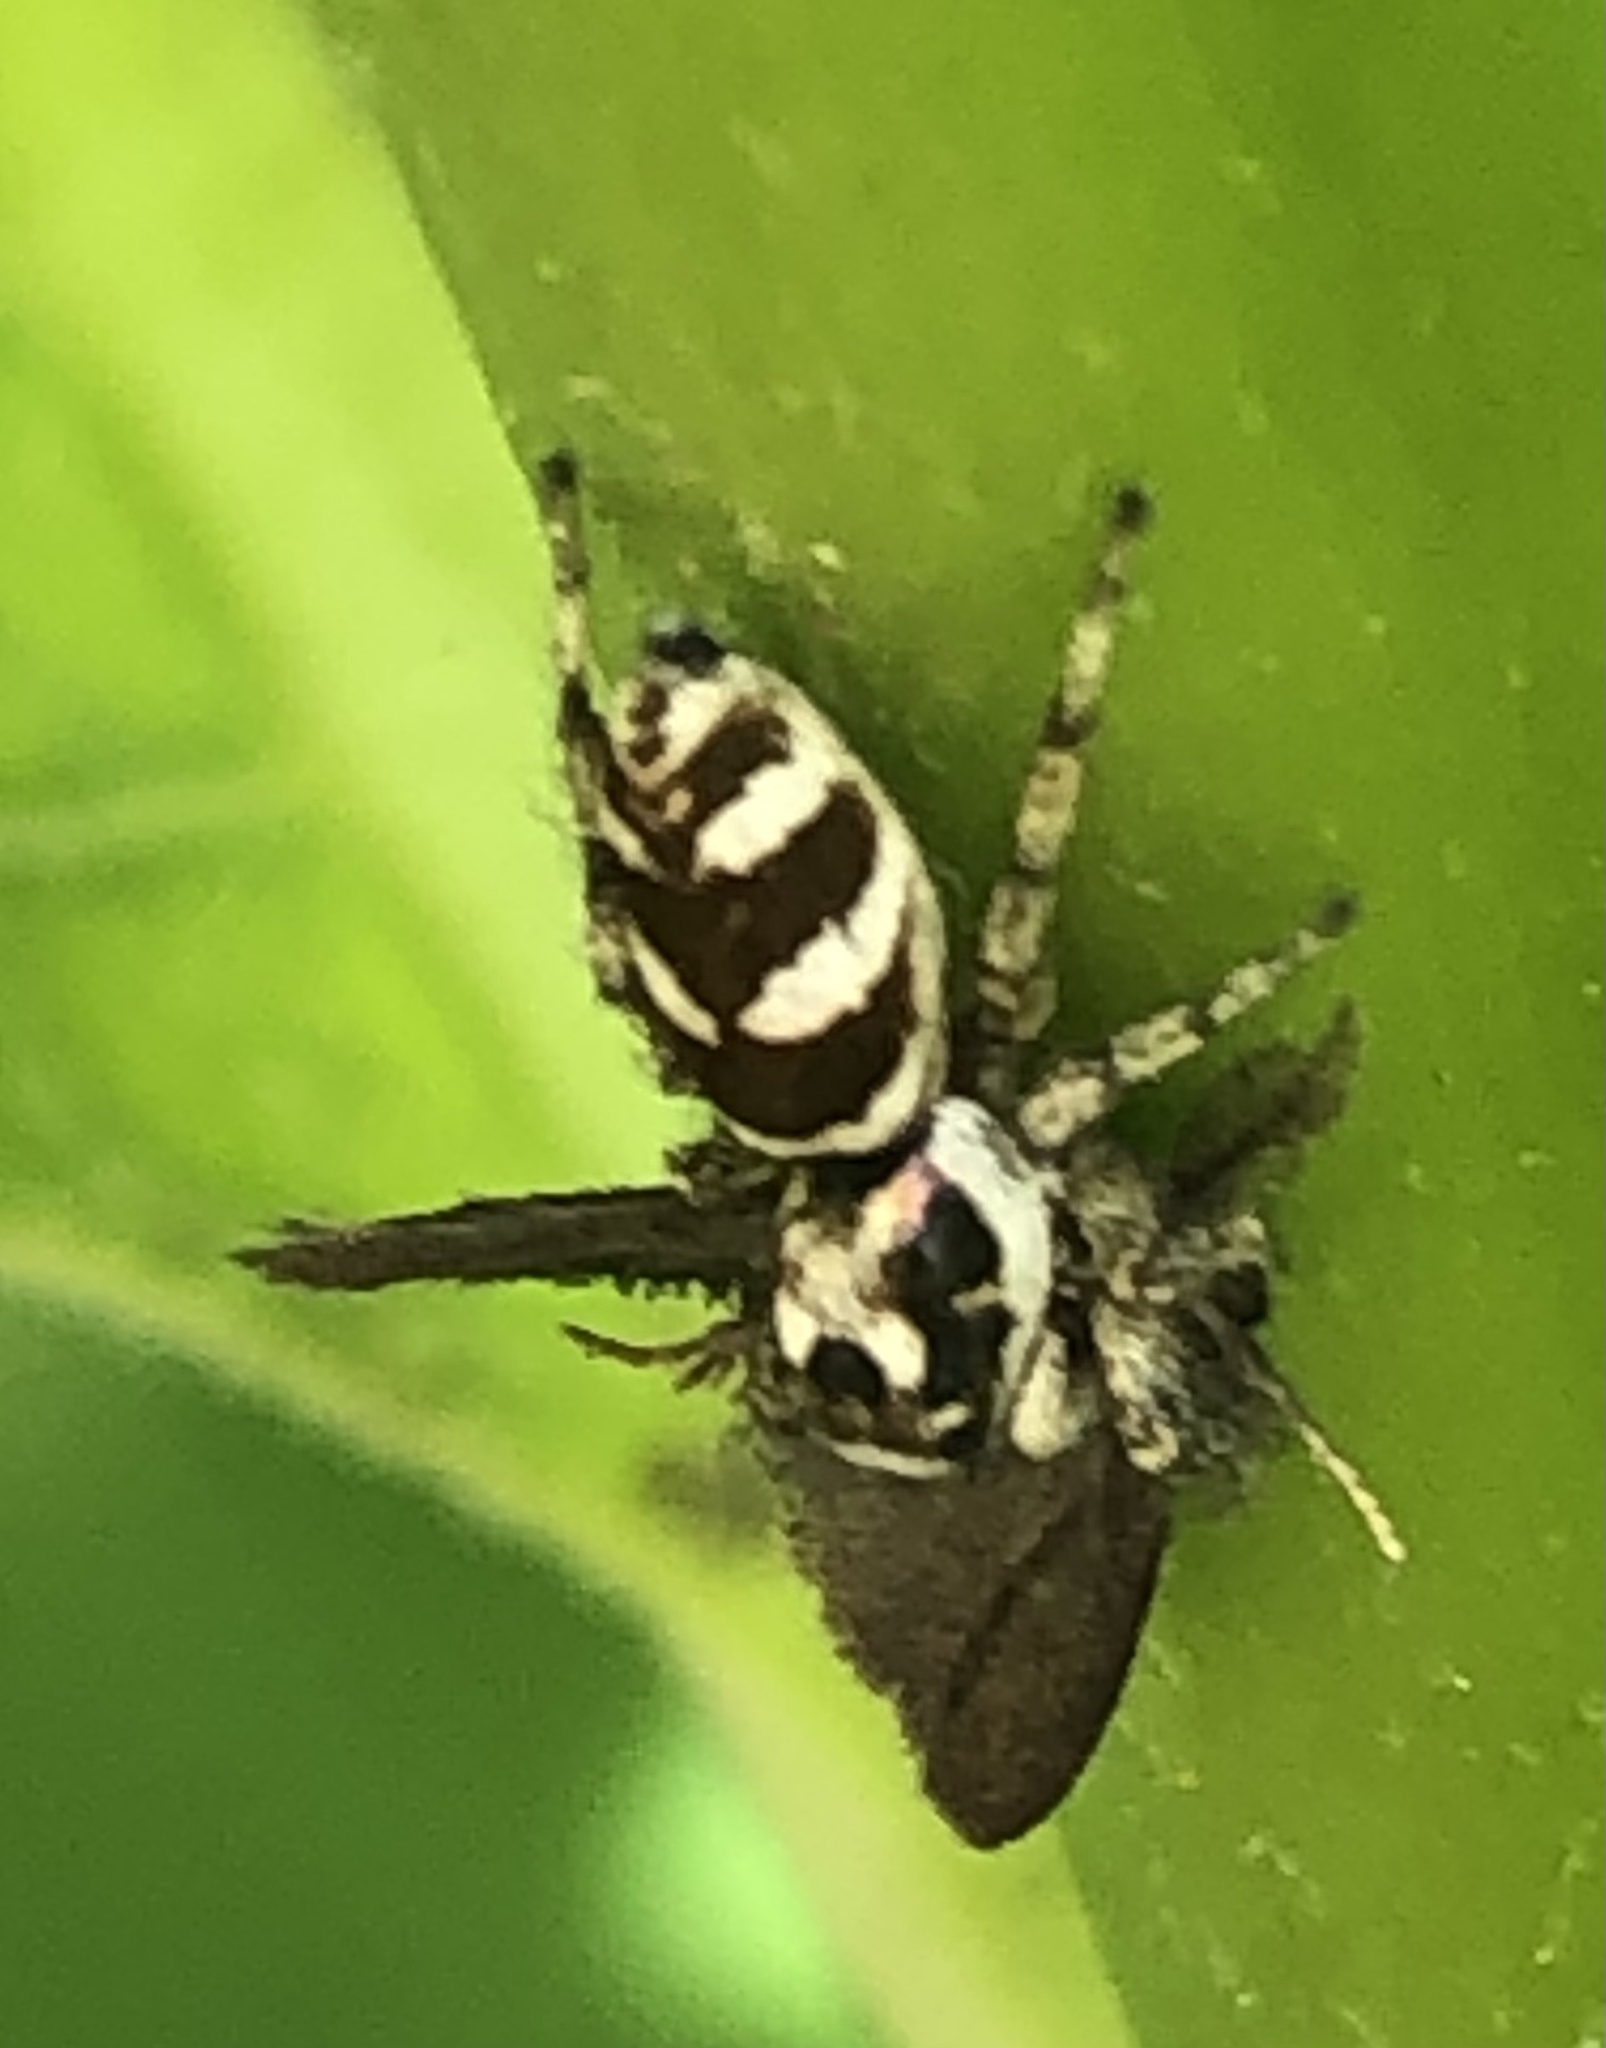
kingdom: Animalia
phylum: Arthropoda
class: Arachnida
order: Araneae
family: Salticidae
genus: Salticus
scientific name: Salticus scenicus
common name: Zebra jumper
